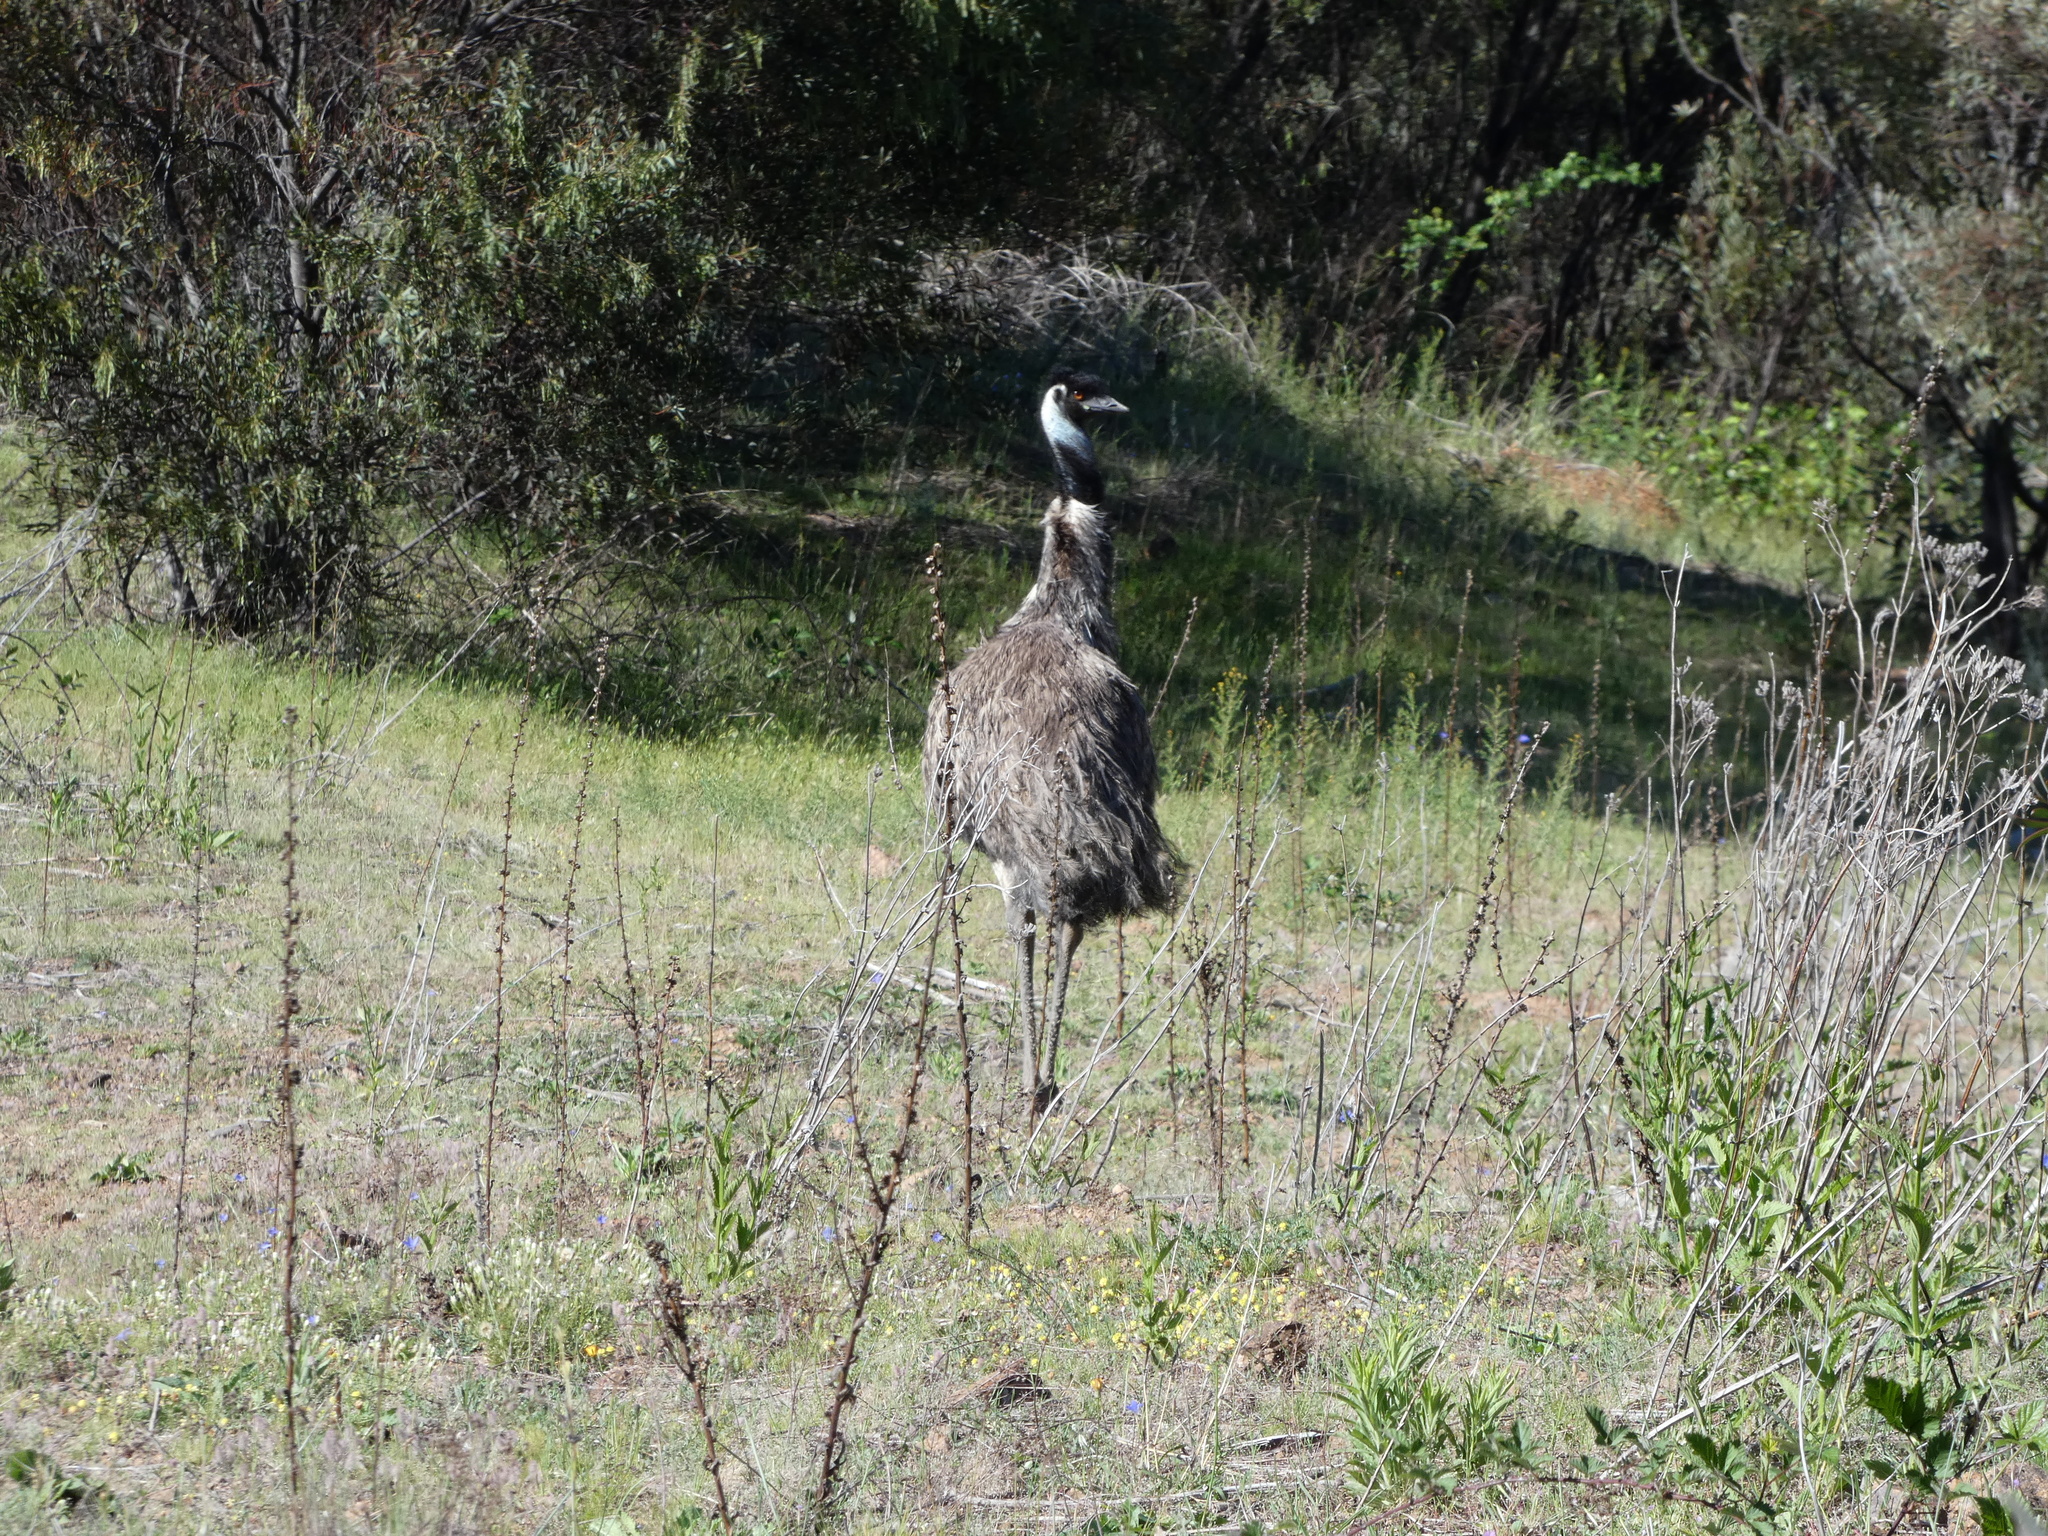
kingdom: Animalia
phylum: Chordata
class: Aves
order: Casuariiformes
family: Dromaiidae
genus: Dromaius
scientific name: Dromaius novaehollandiae
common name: Emu
